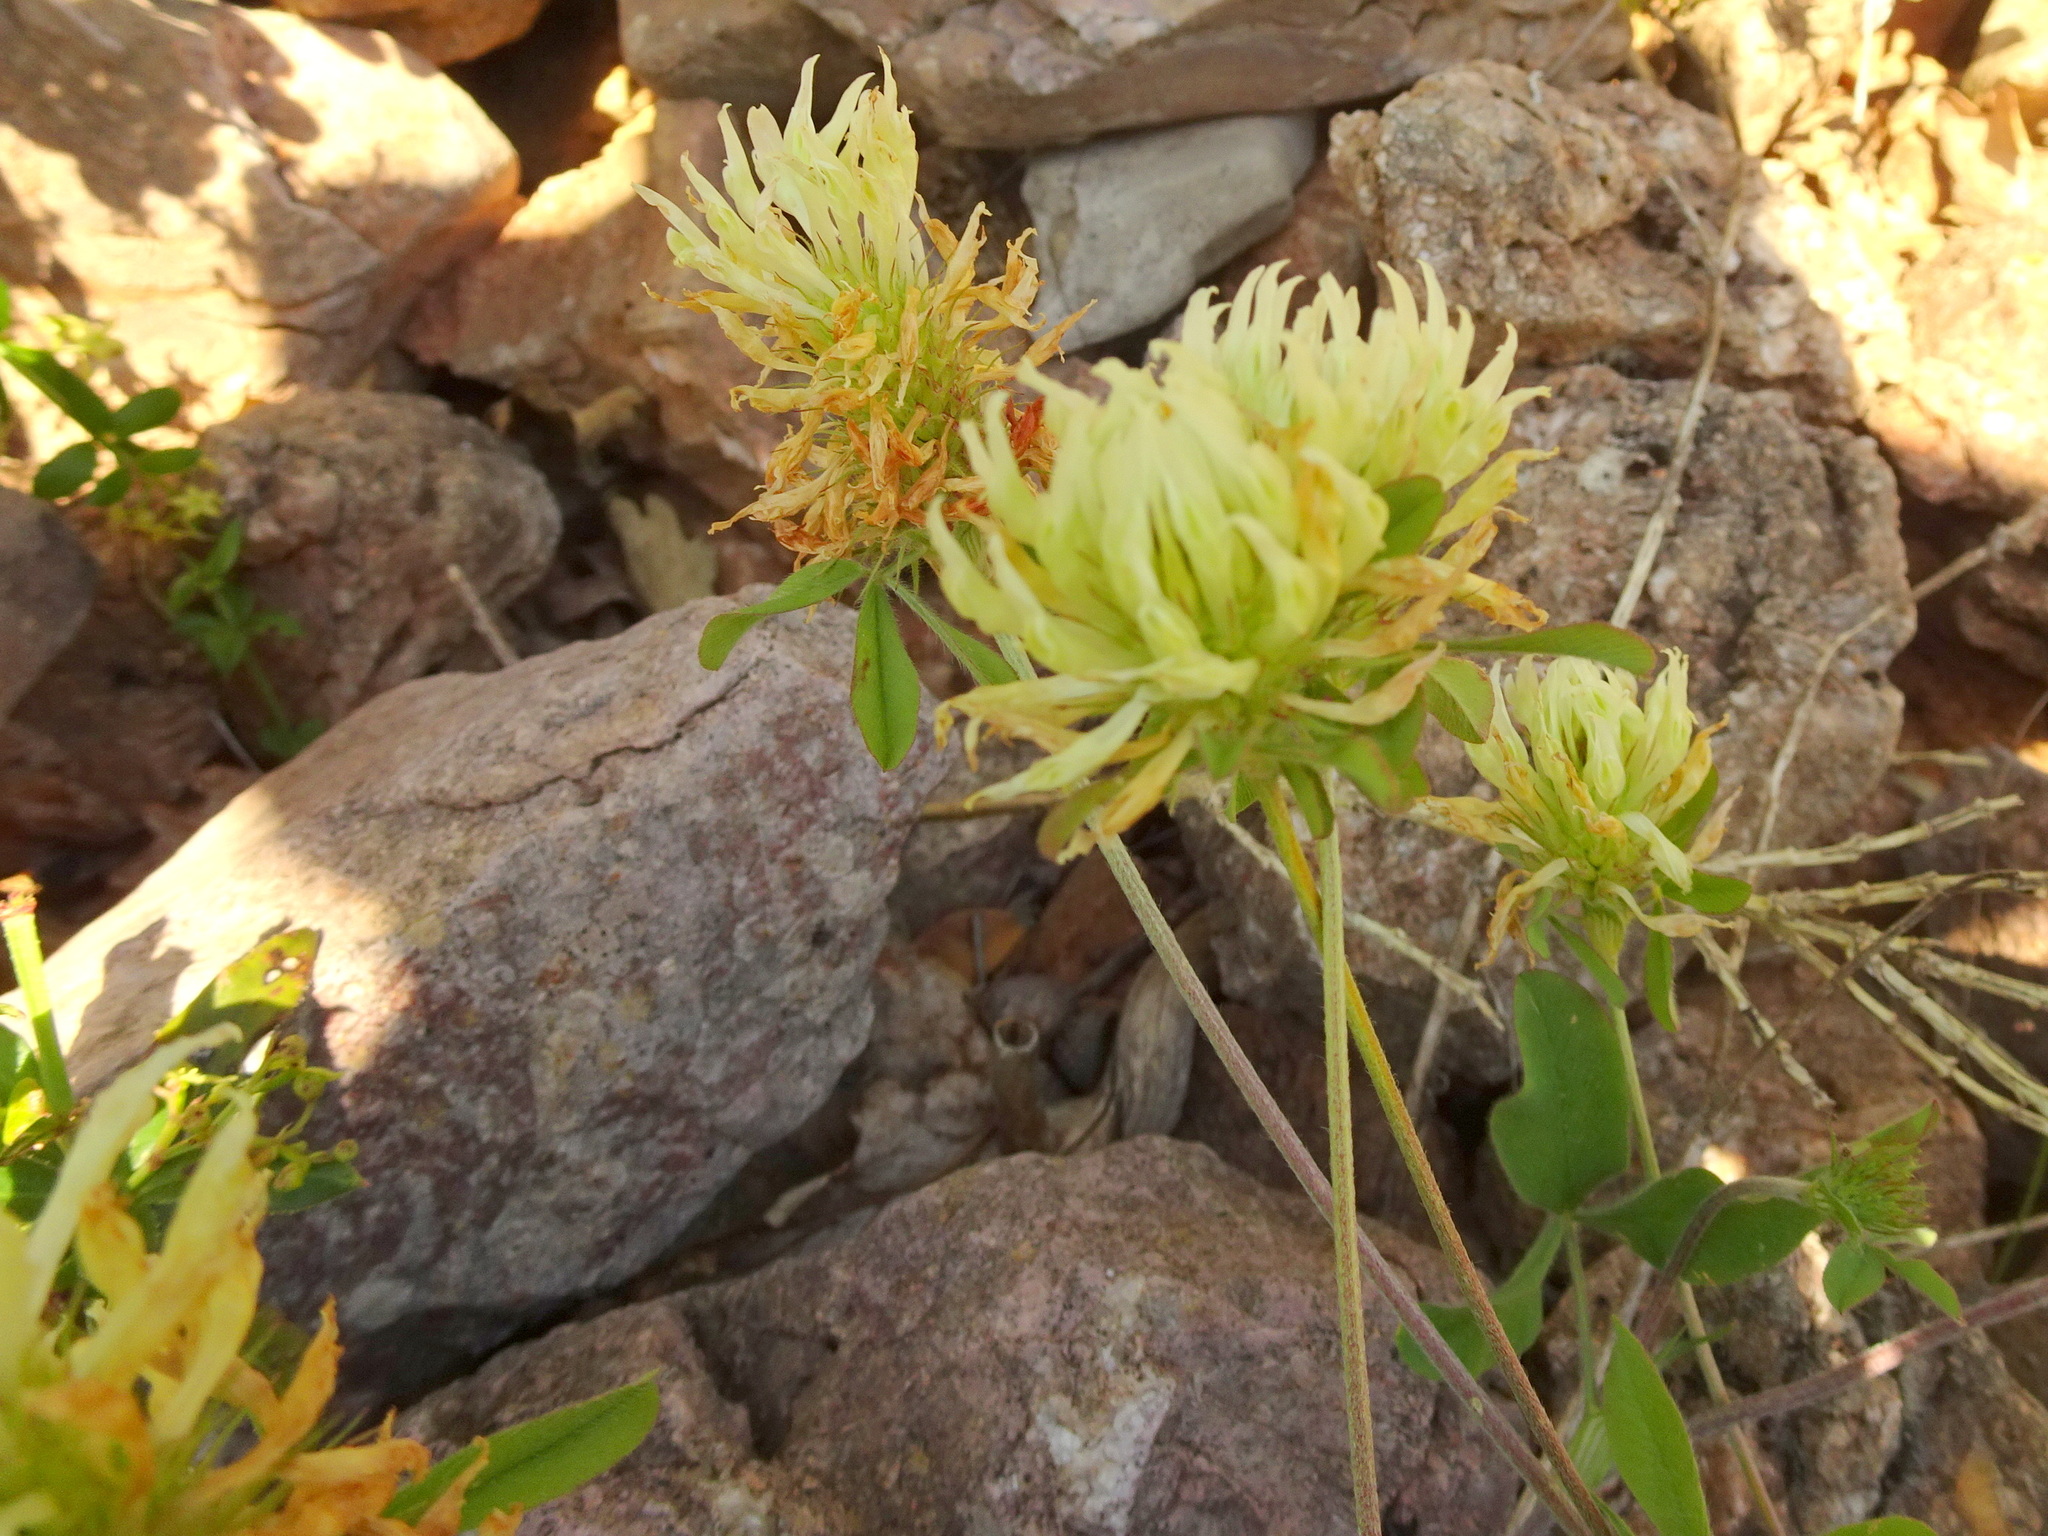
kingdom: Plantae
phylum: Tracheophyta
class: Magnoliopsida
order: Fabales
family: Fabaceae
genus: Trifolium
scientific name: Trifolium ochroleucon
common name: Sulphur clover
